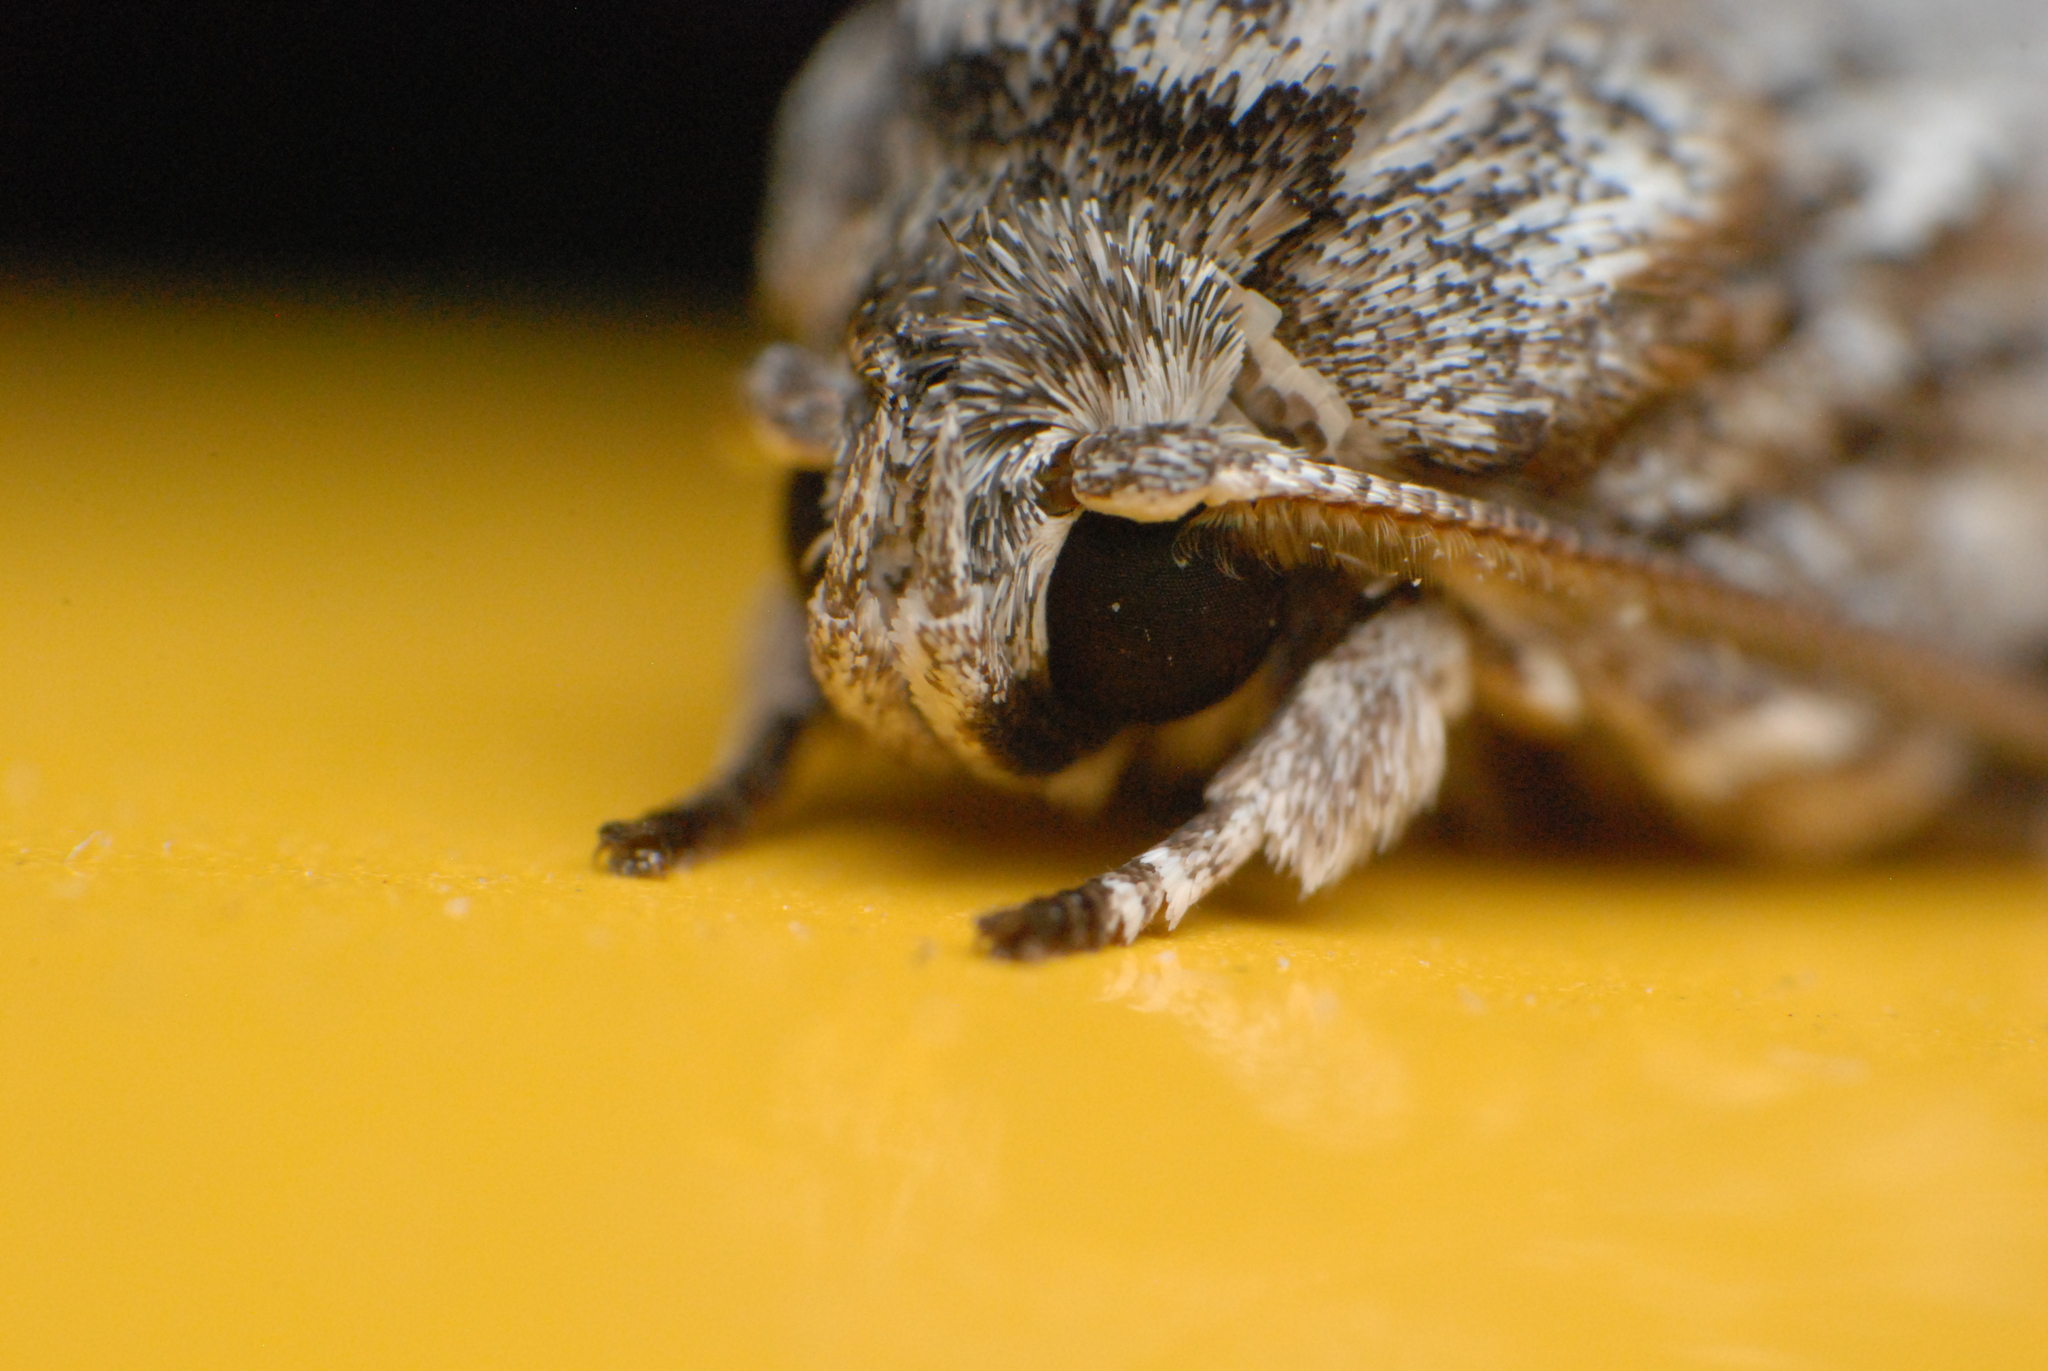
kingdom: Animalia
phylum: Arthropoda
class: Insecta
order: Lepidoptera
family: Depressariidae
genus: Agriophara
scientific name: Agriophara confertella
